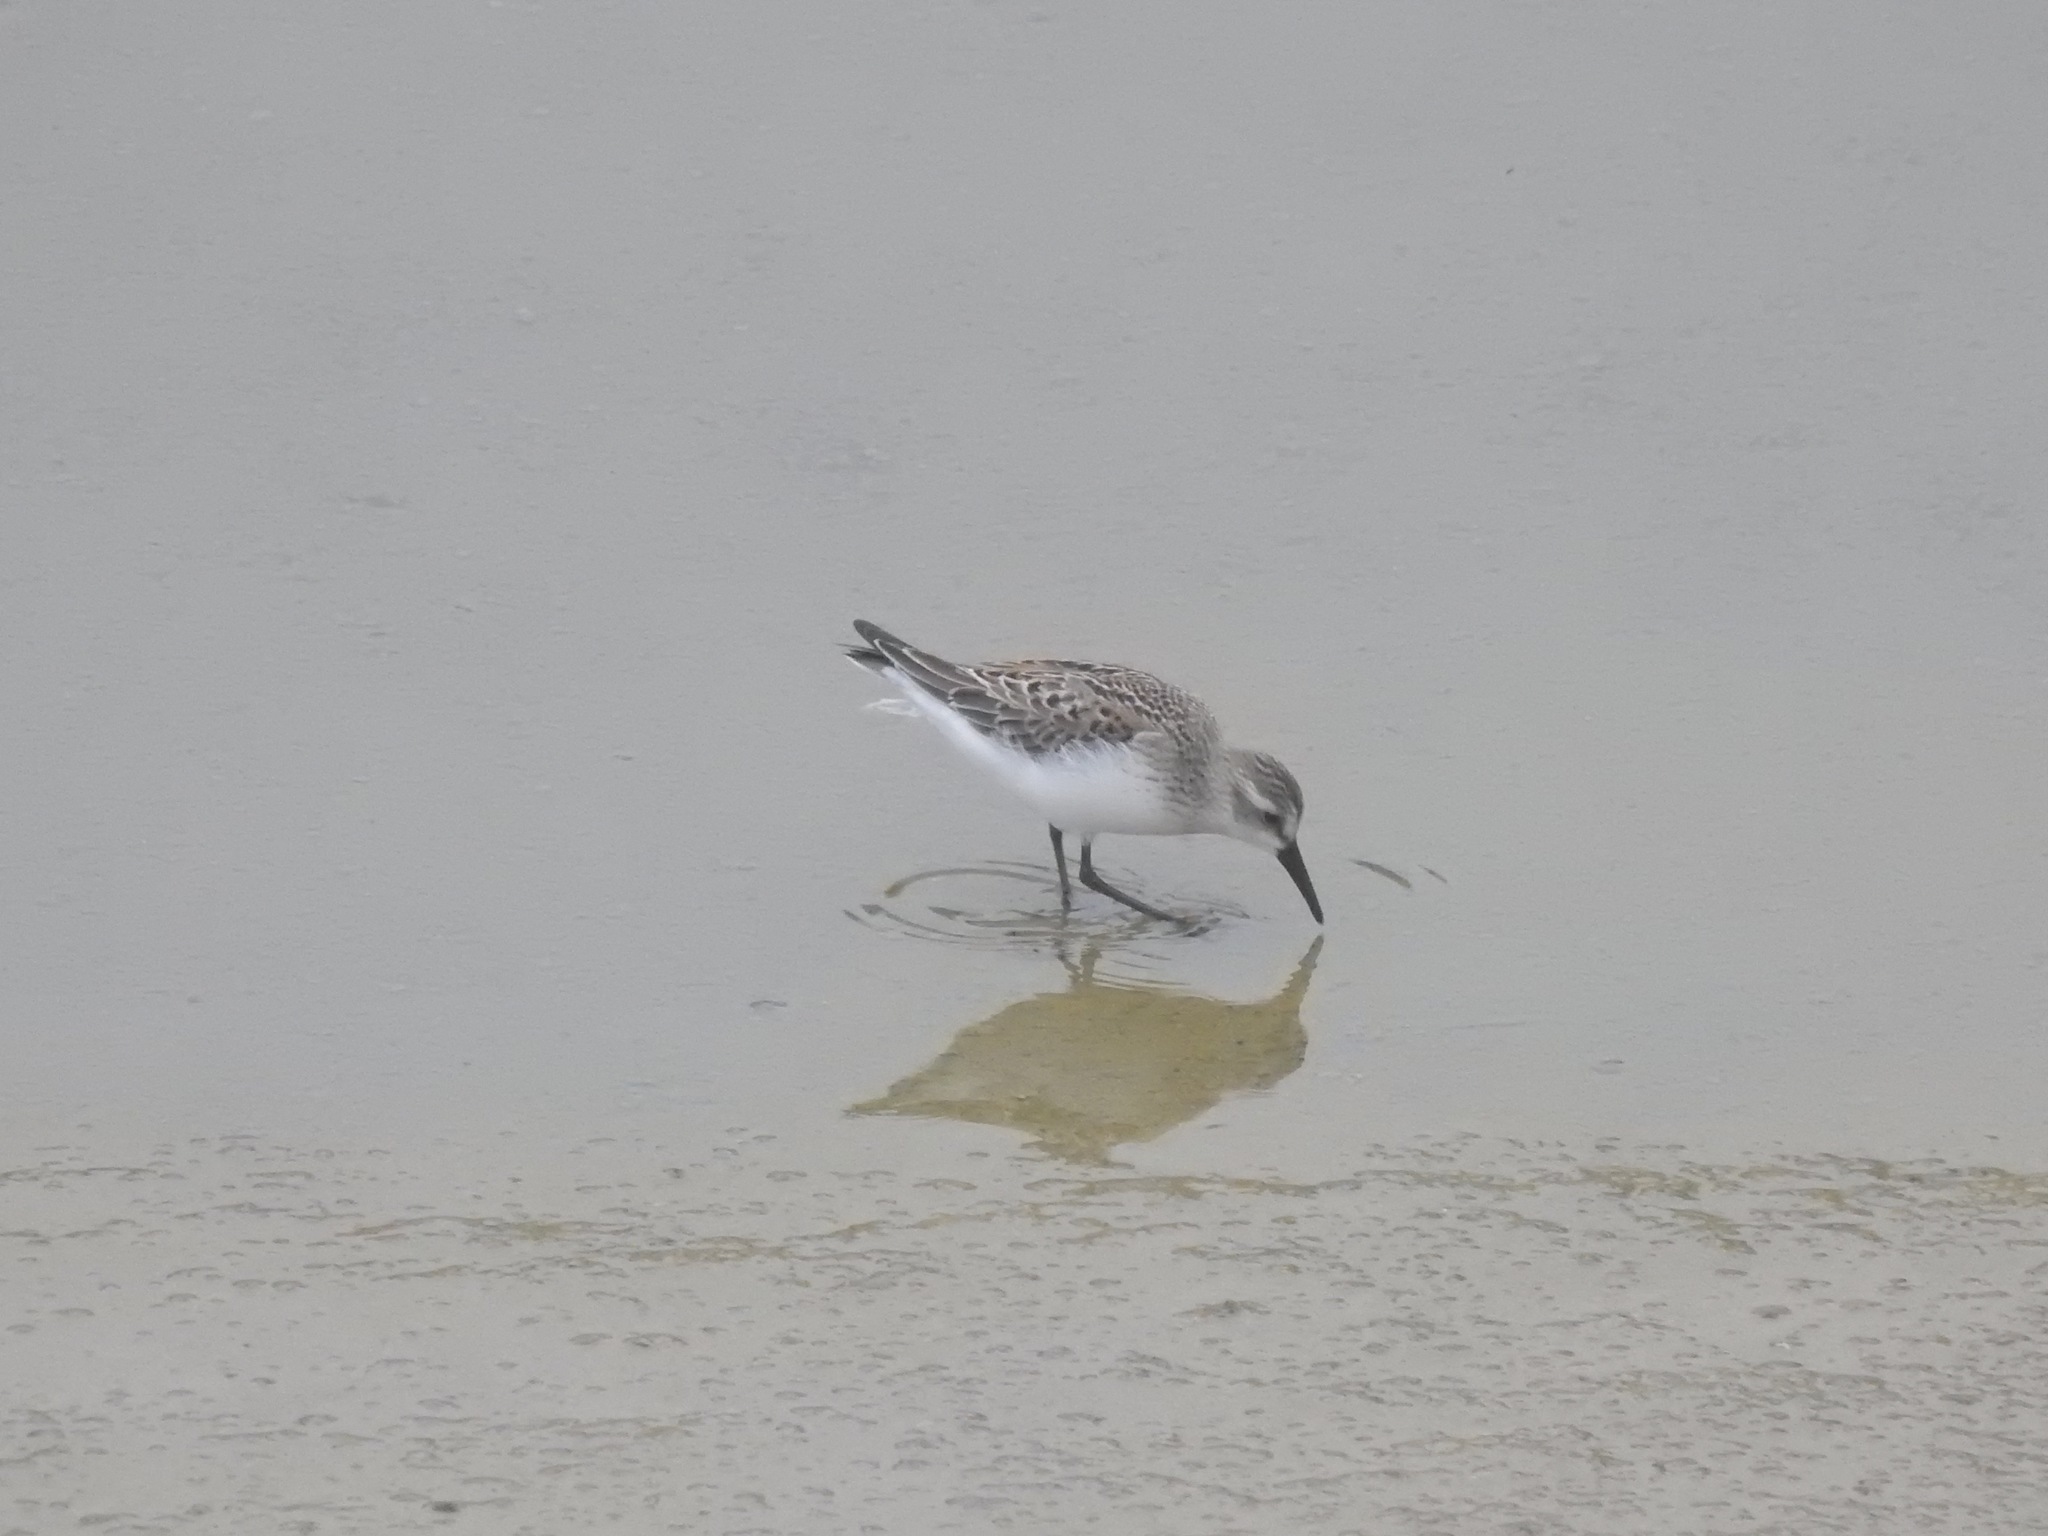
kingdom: Animalia
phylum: Chordata
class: Aves
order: Charadriiformes
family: Scolopacidae
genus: Calidris
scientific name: Calidris mauri
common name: Western sandpiper
